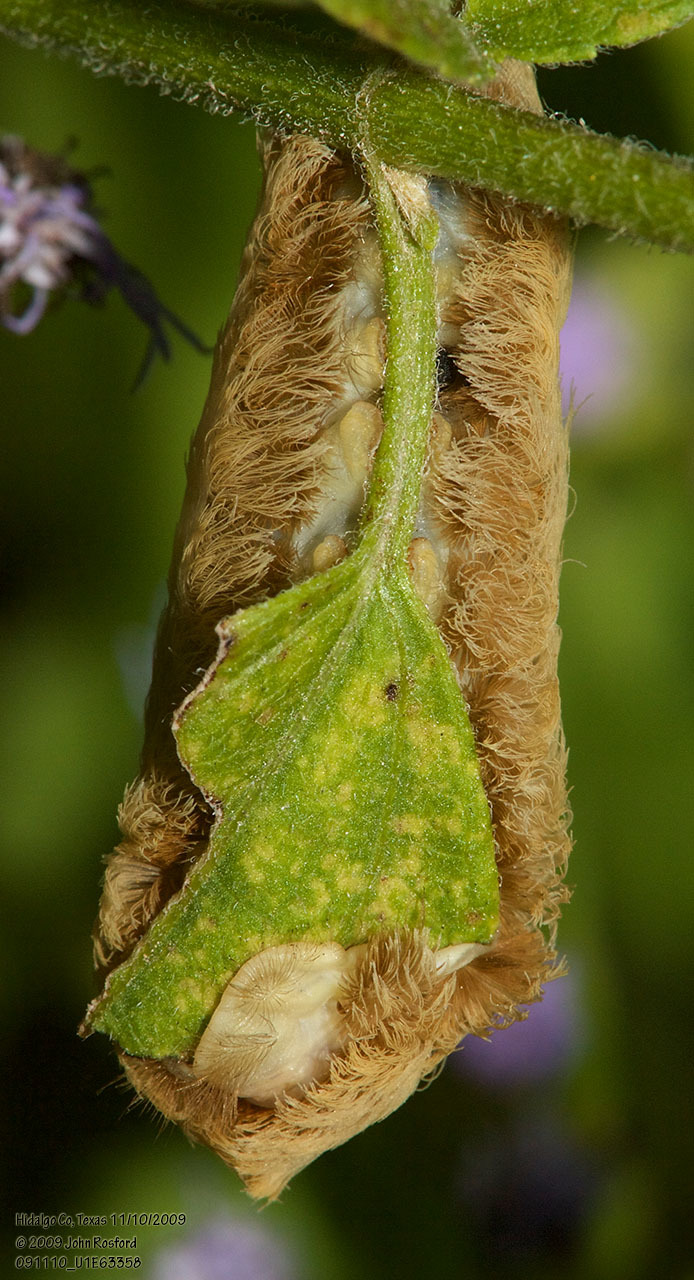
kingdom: Animalia
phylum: Arthropoda
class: Insecta
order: Lepidoptera
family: Megalopygidae
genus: Megalopyge
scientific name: Megalopyge opercularis
